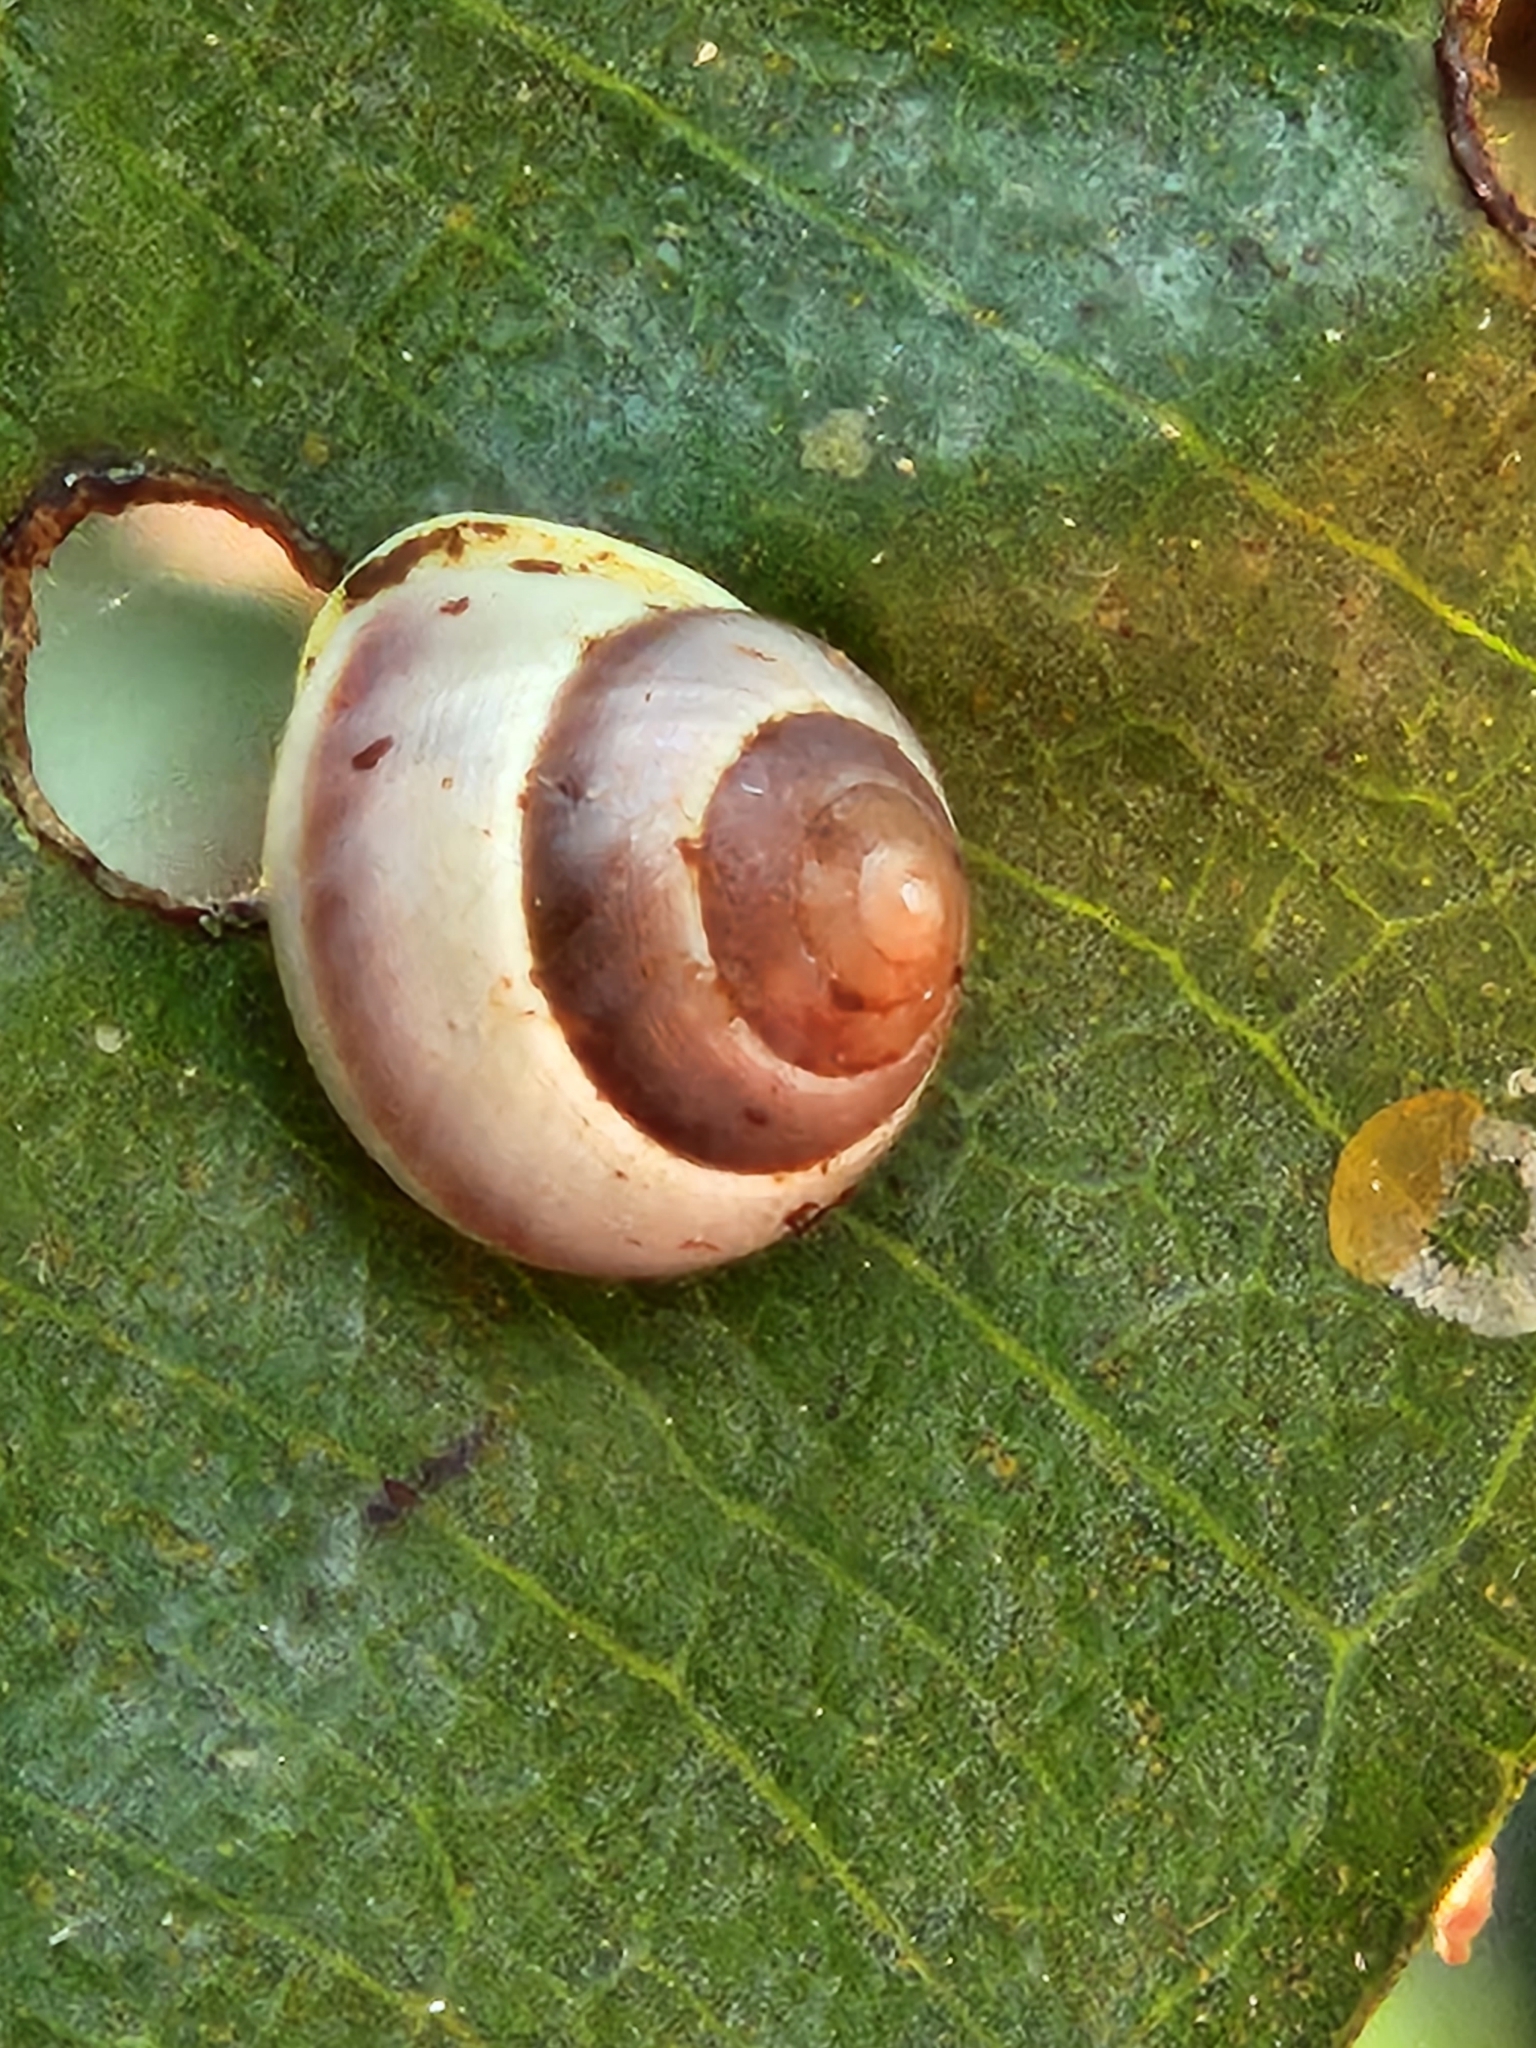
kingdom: Animalia
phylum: Mollusca
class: Gastropoda
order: Cycloneritida
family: Helicinidae
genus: Helicina
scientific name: Helicina oweniana
